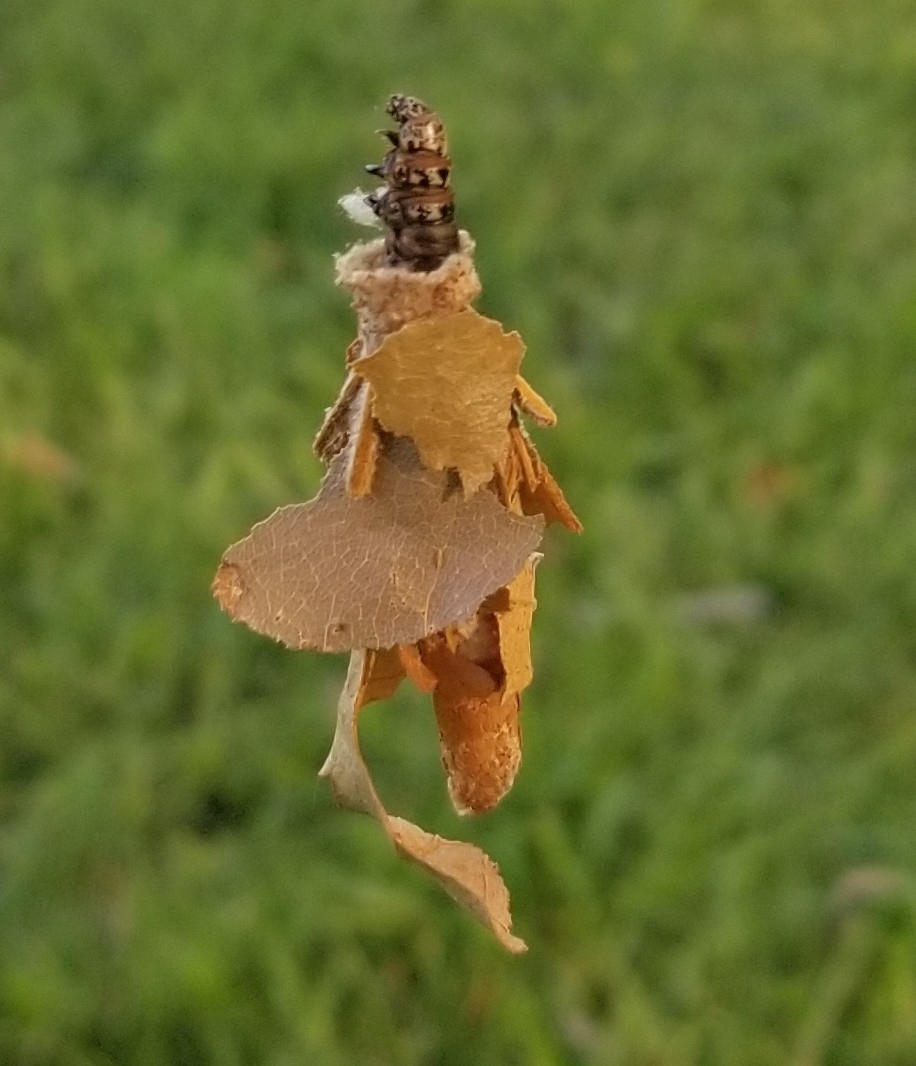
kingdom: Animalia
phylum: Arthropoda
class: Insecta
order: Lepidoptera
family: Psychidae
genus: Thyridopteryx
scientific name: Thyridopteryx ephemeraeformis
